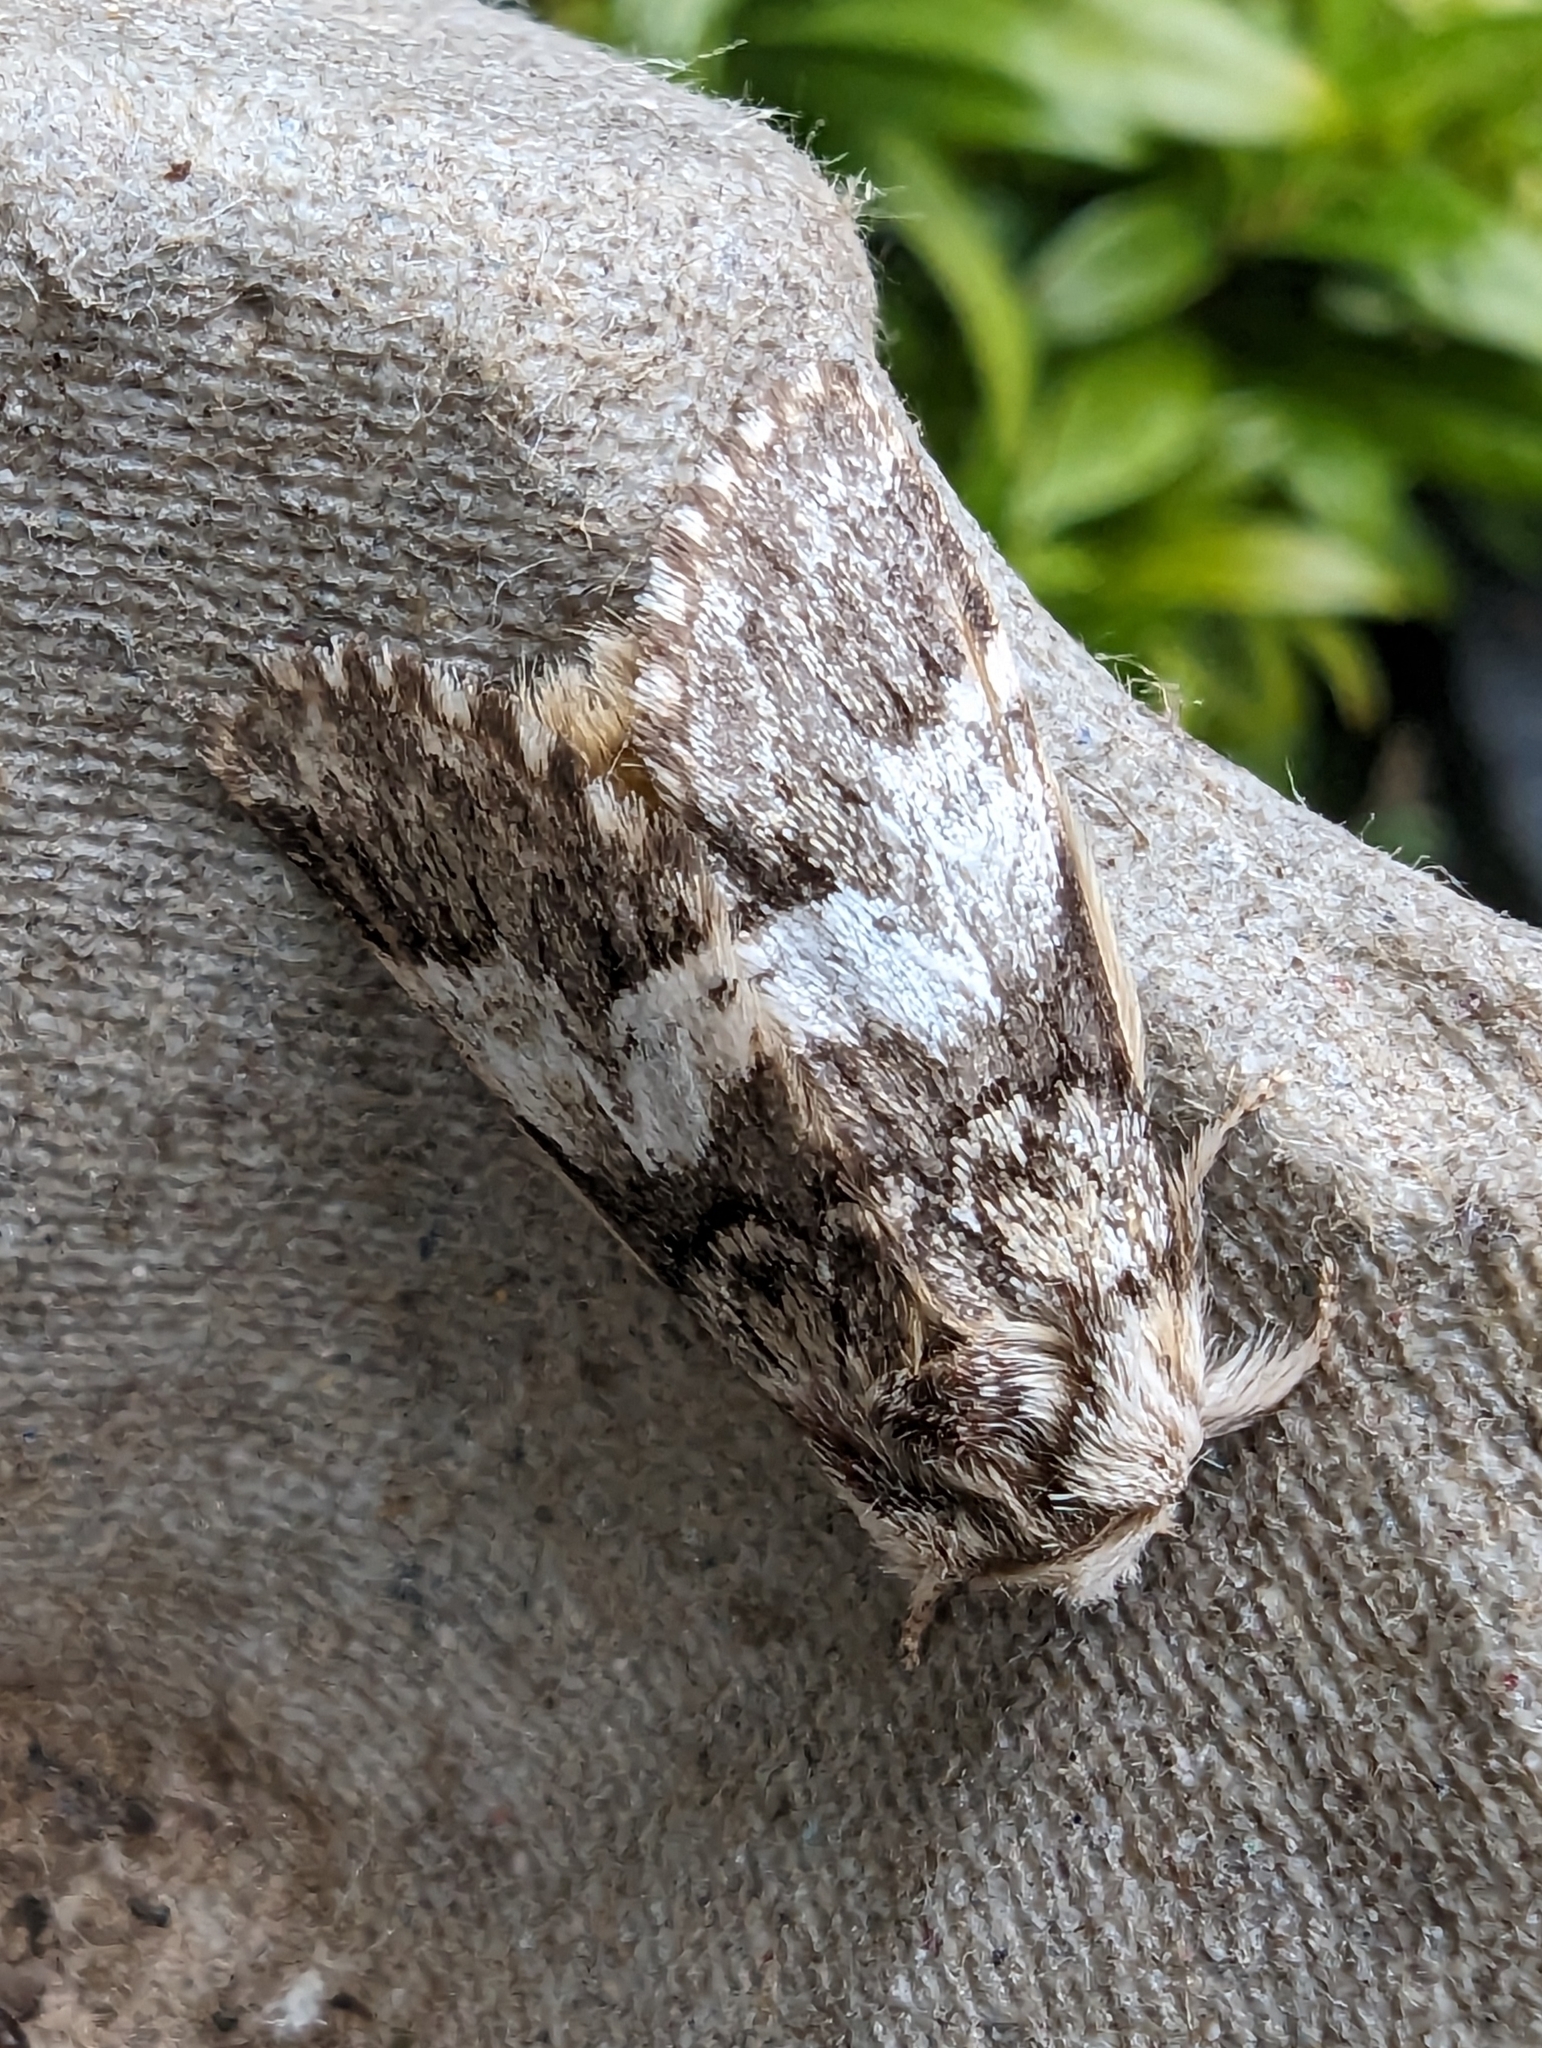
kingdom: Animalia
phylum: Arthropoda
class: Insecta
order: Lepidoptera
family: Notodontidae
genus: Drymonia
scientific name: Drymonia dodonaea
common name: Marbled brown
